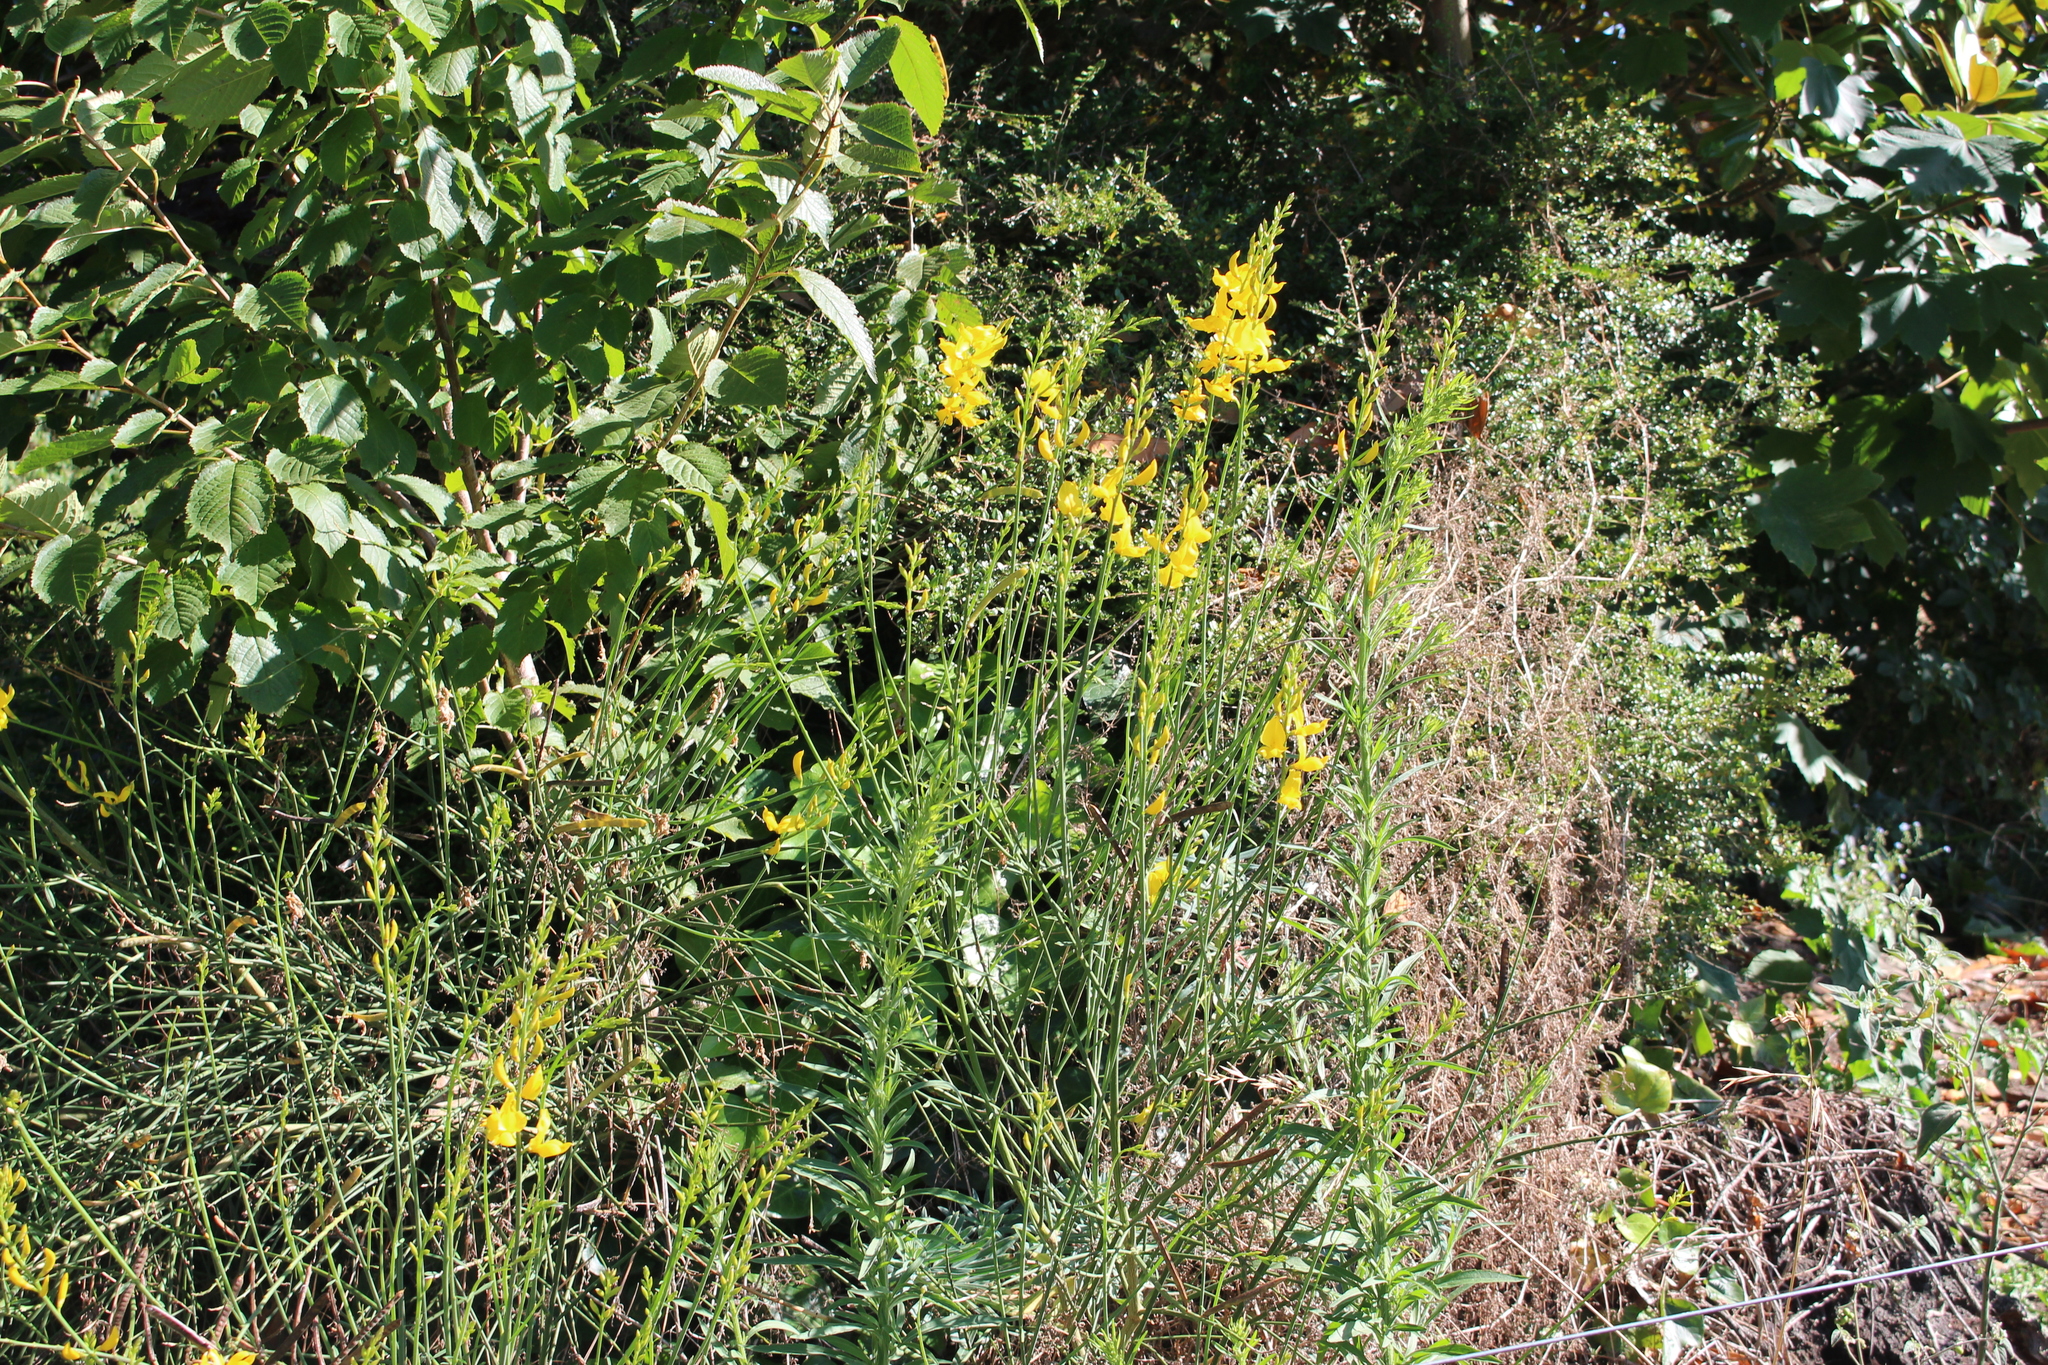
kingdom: Plantae
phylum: Tracheophyta
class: Magnoliopsida
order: Fabales
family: Fabaceae
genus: Spartium
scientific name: Spartium junceum
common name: Spanish broom
